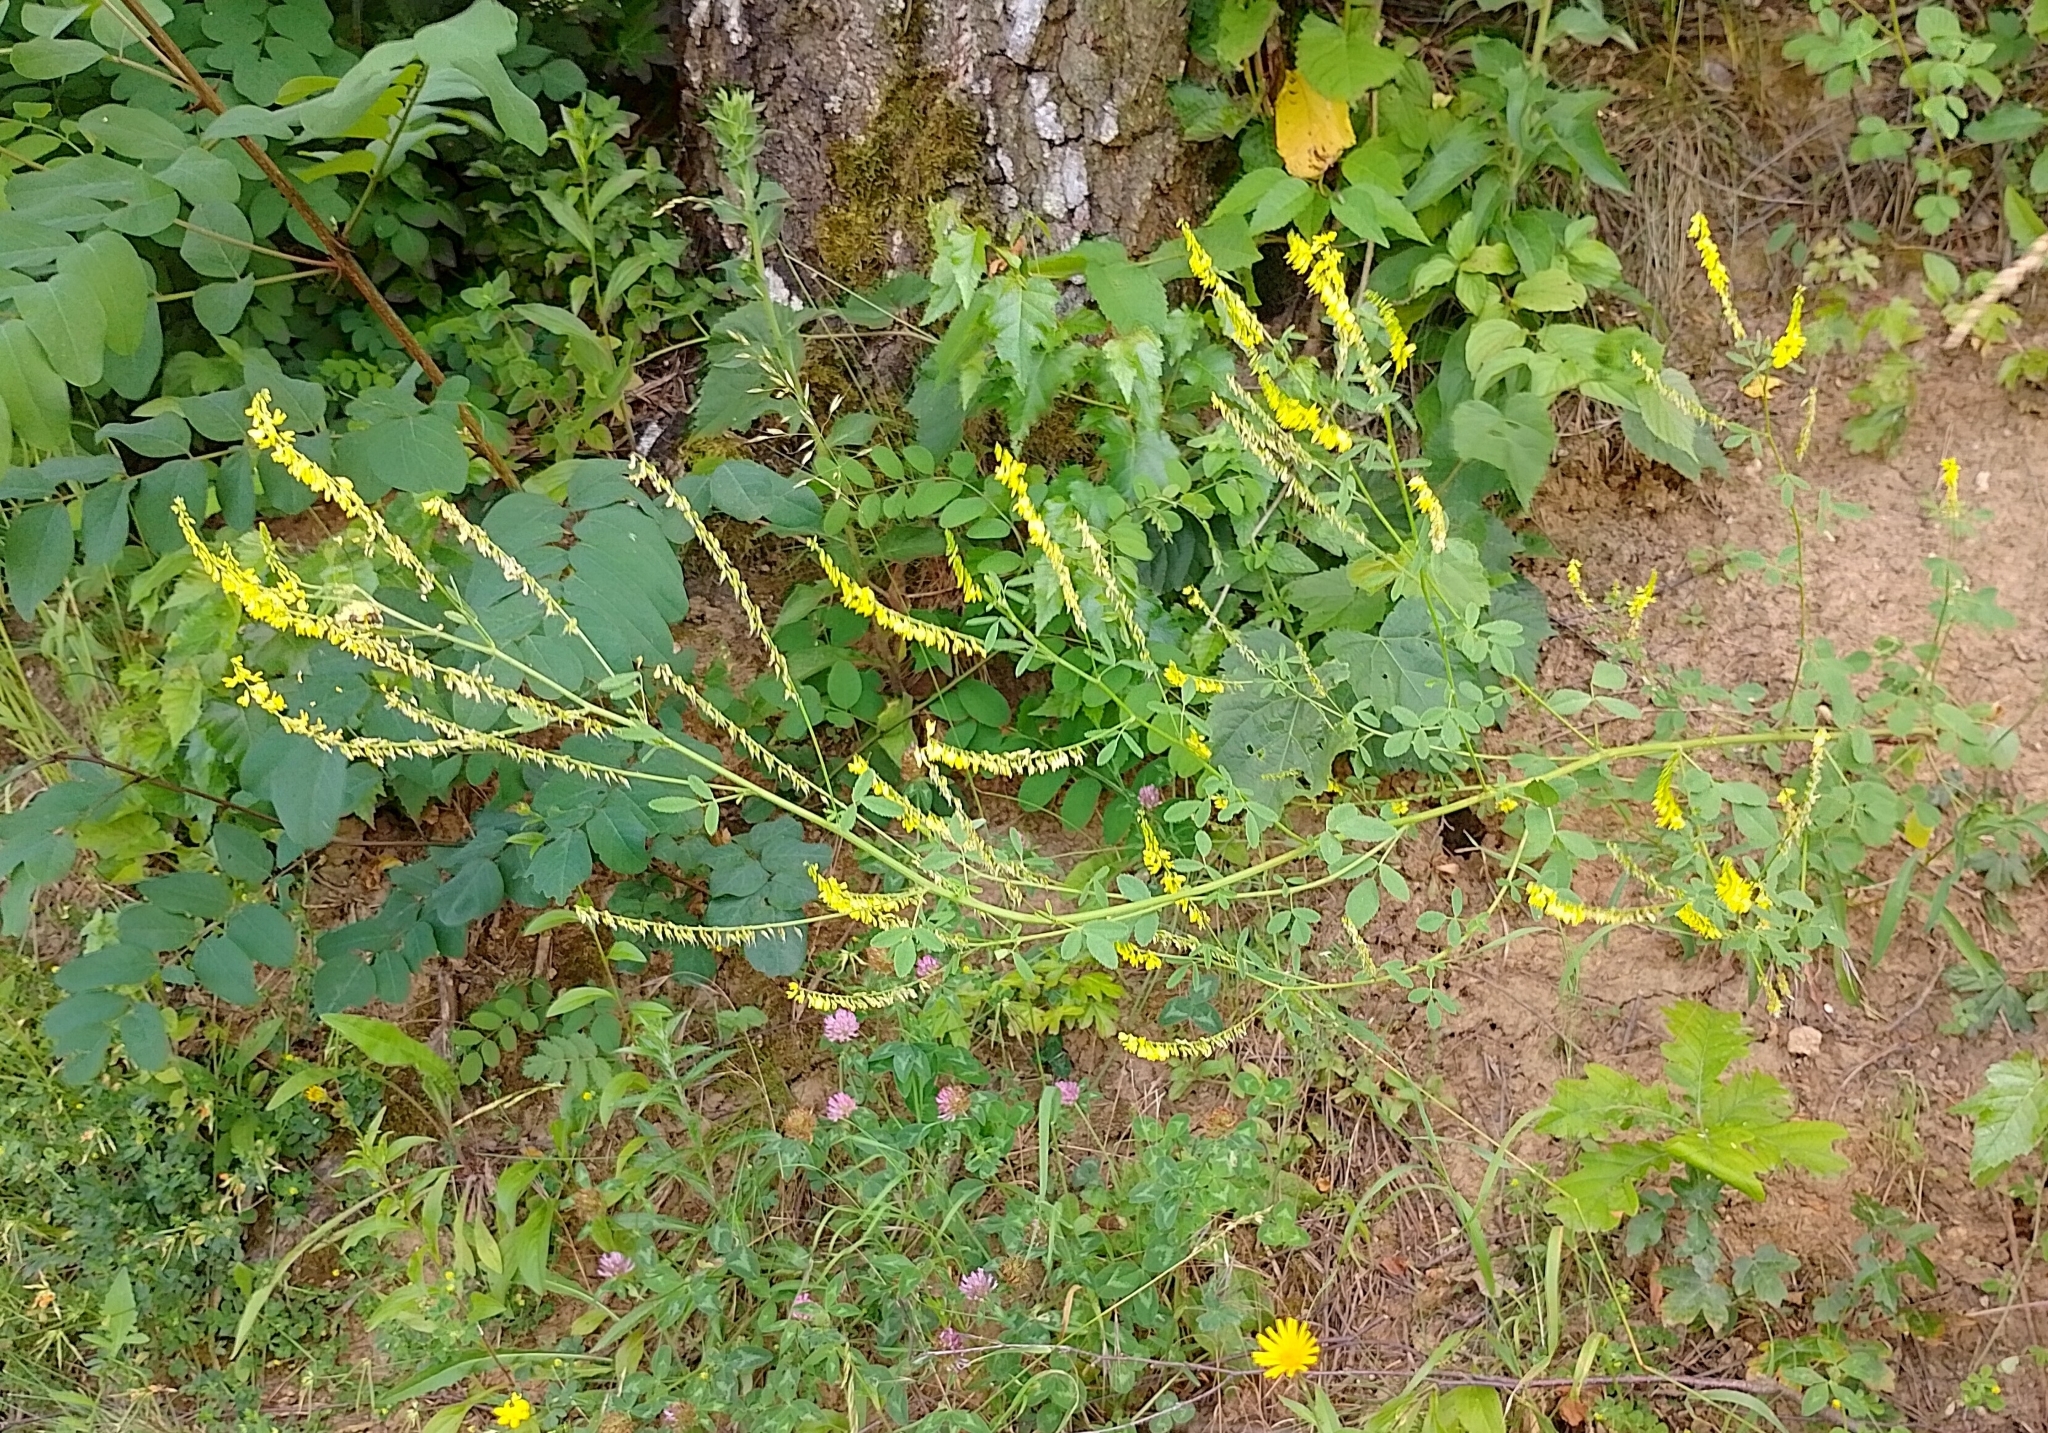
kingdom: Plantae
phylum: Tracheophyta
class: Magnoliopsida
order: Fabales
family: Fabaceae
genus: Melilotus
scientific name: Melilotus officinalis
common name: Sweetclover
